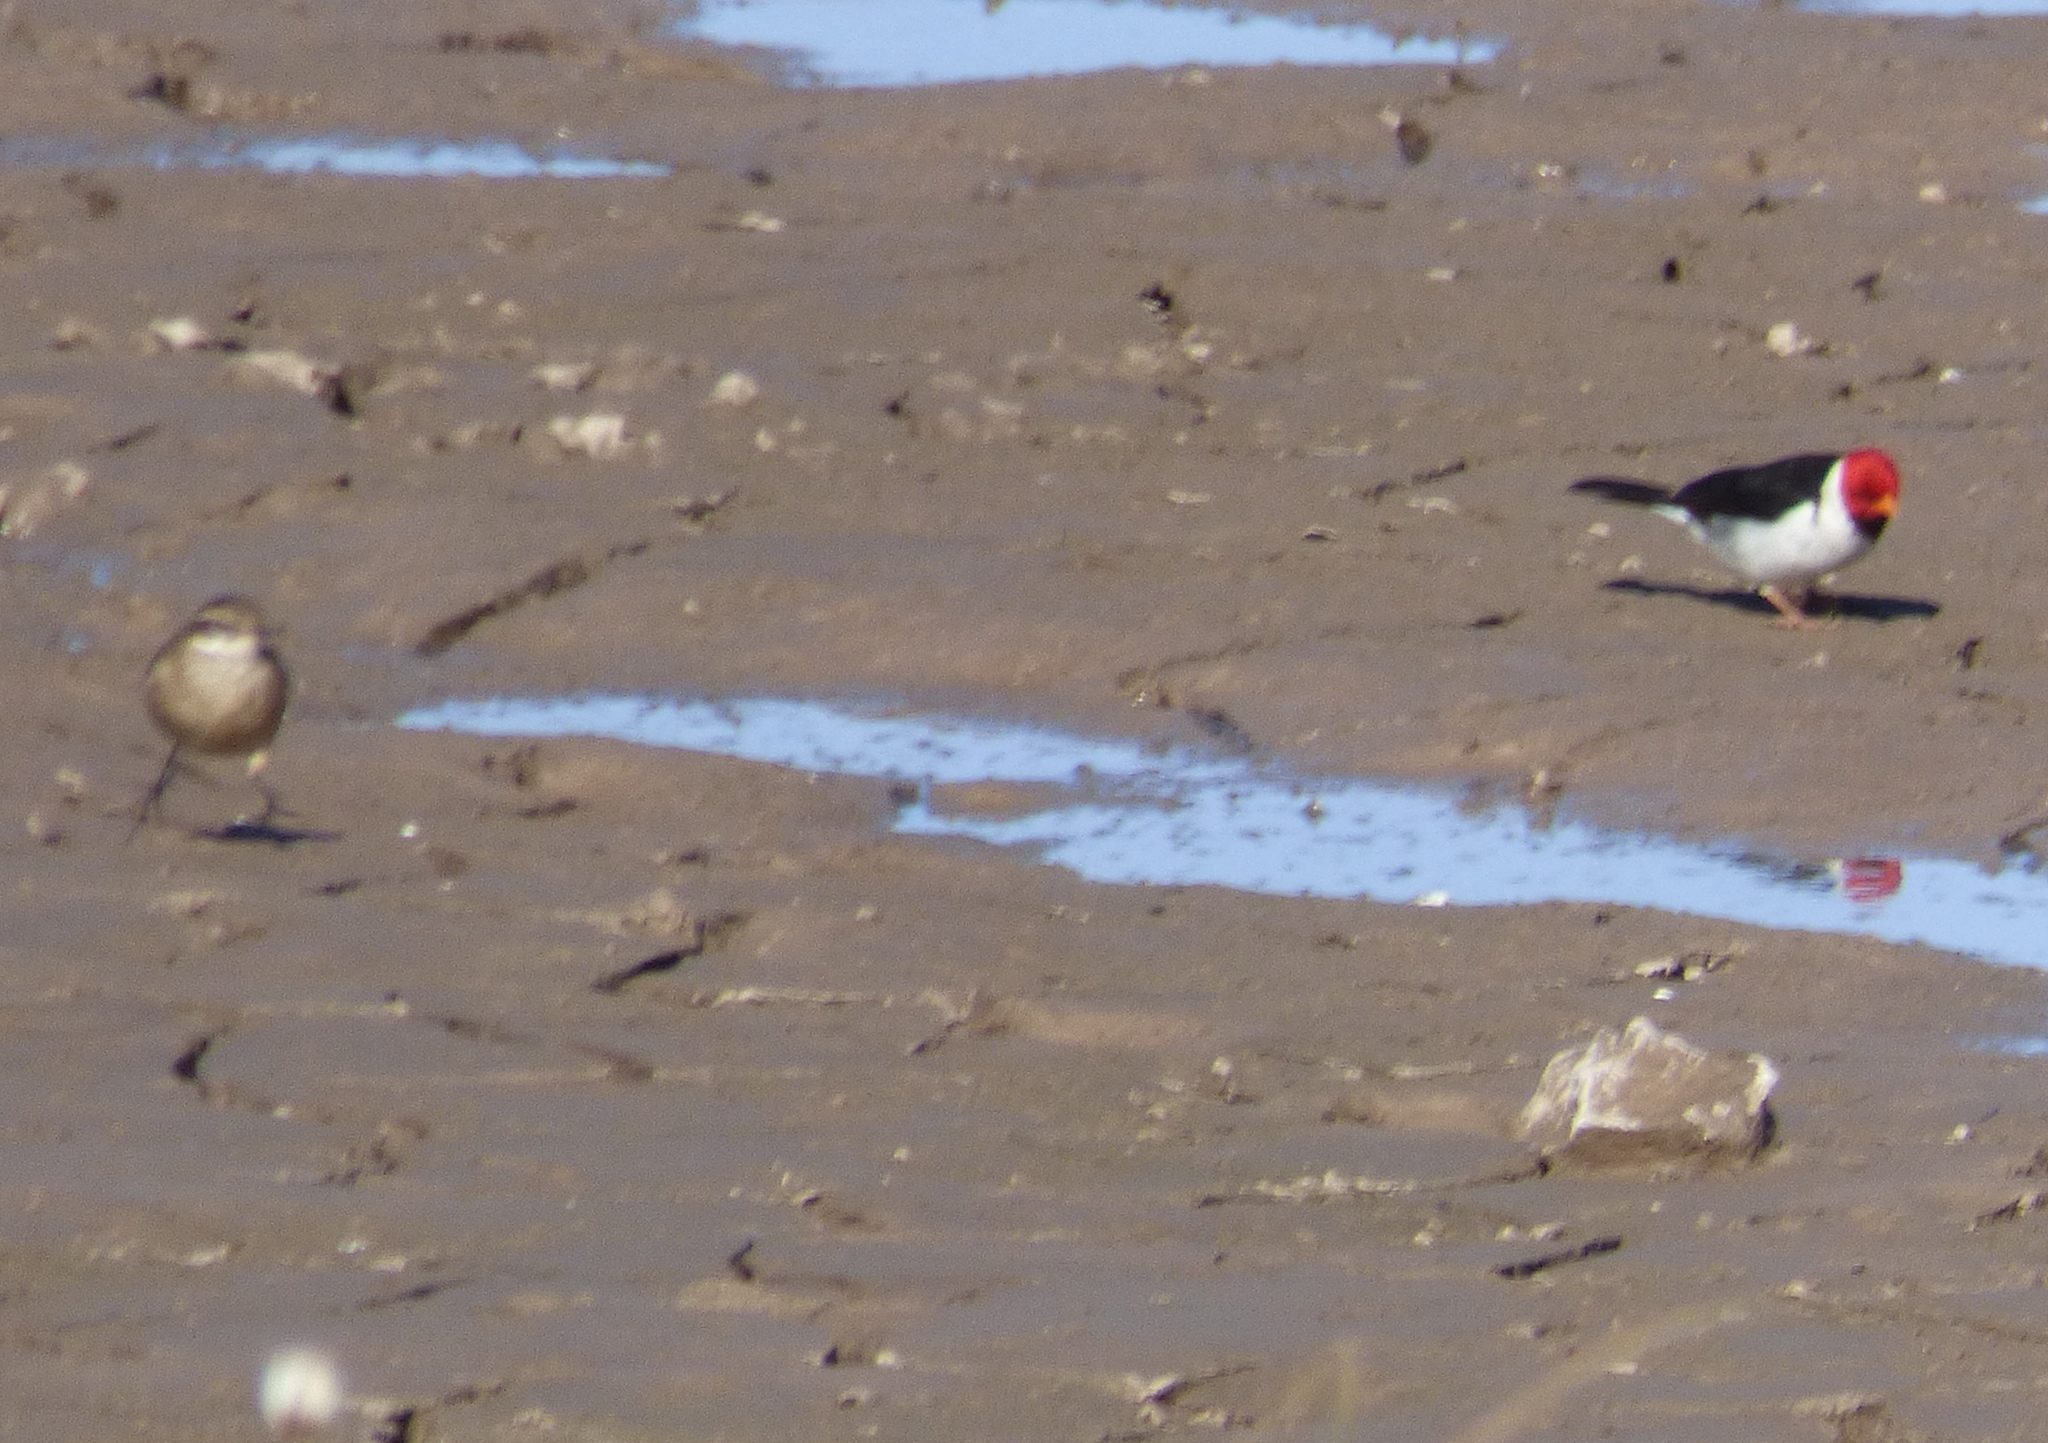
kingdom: Animalia
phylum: Chordata
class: Aves
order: Passeriformes
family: Thraupidae
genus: Paroaria
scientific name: Paroaria capitata
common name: Yellow-billed cardinal
